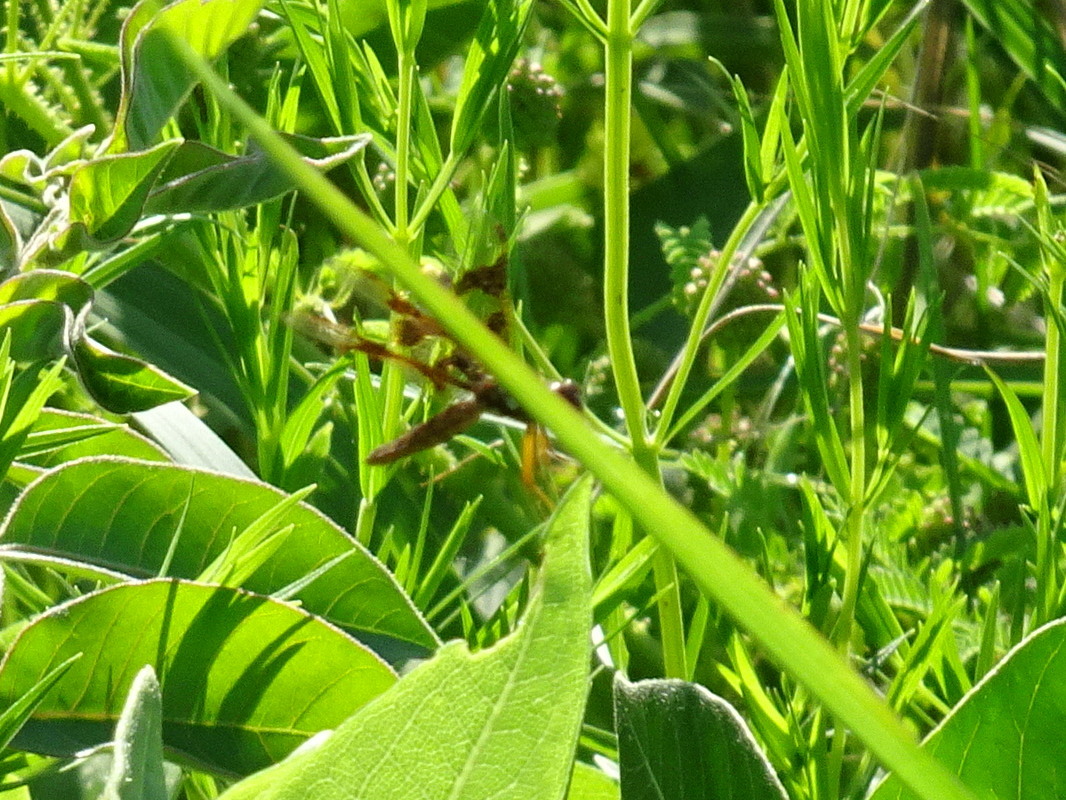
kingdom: Animalia
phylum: Arthropoda
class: Insecta
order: Odonata
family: Libellulidae
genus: Perithemis
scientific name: Perithemis tenera
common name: Eastern amberwing
